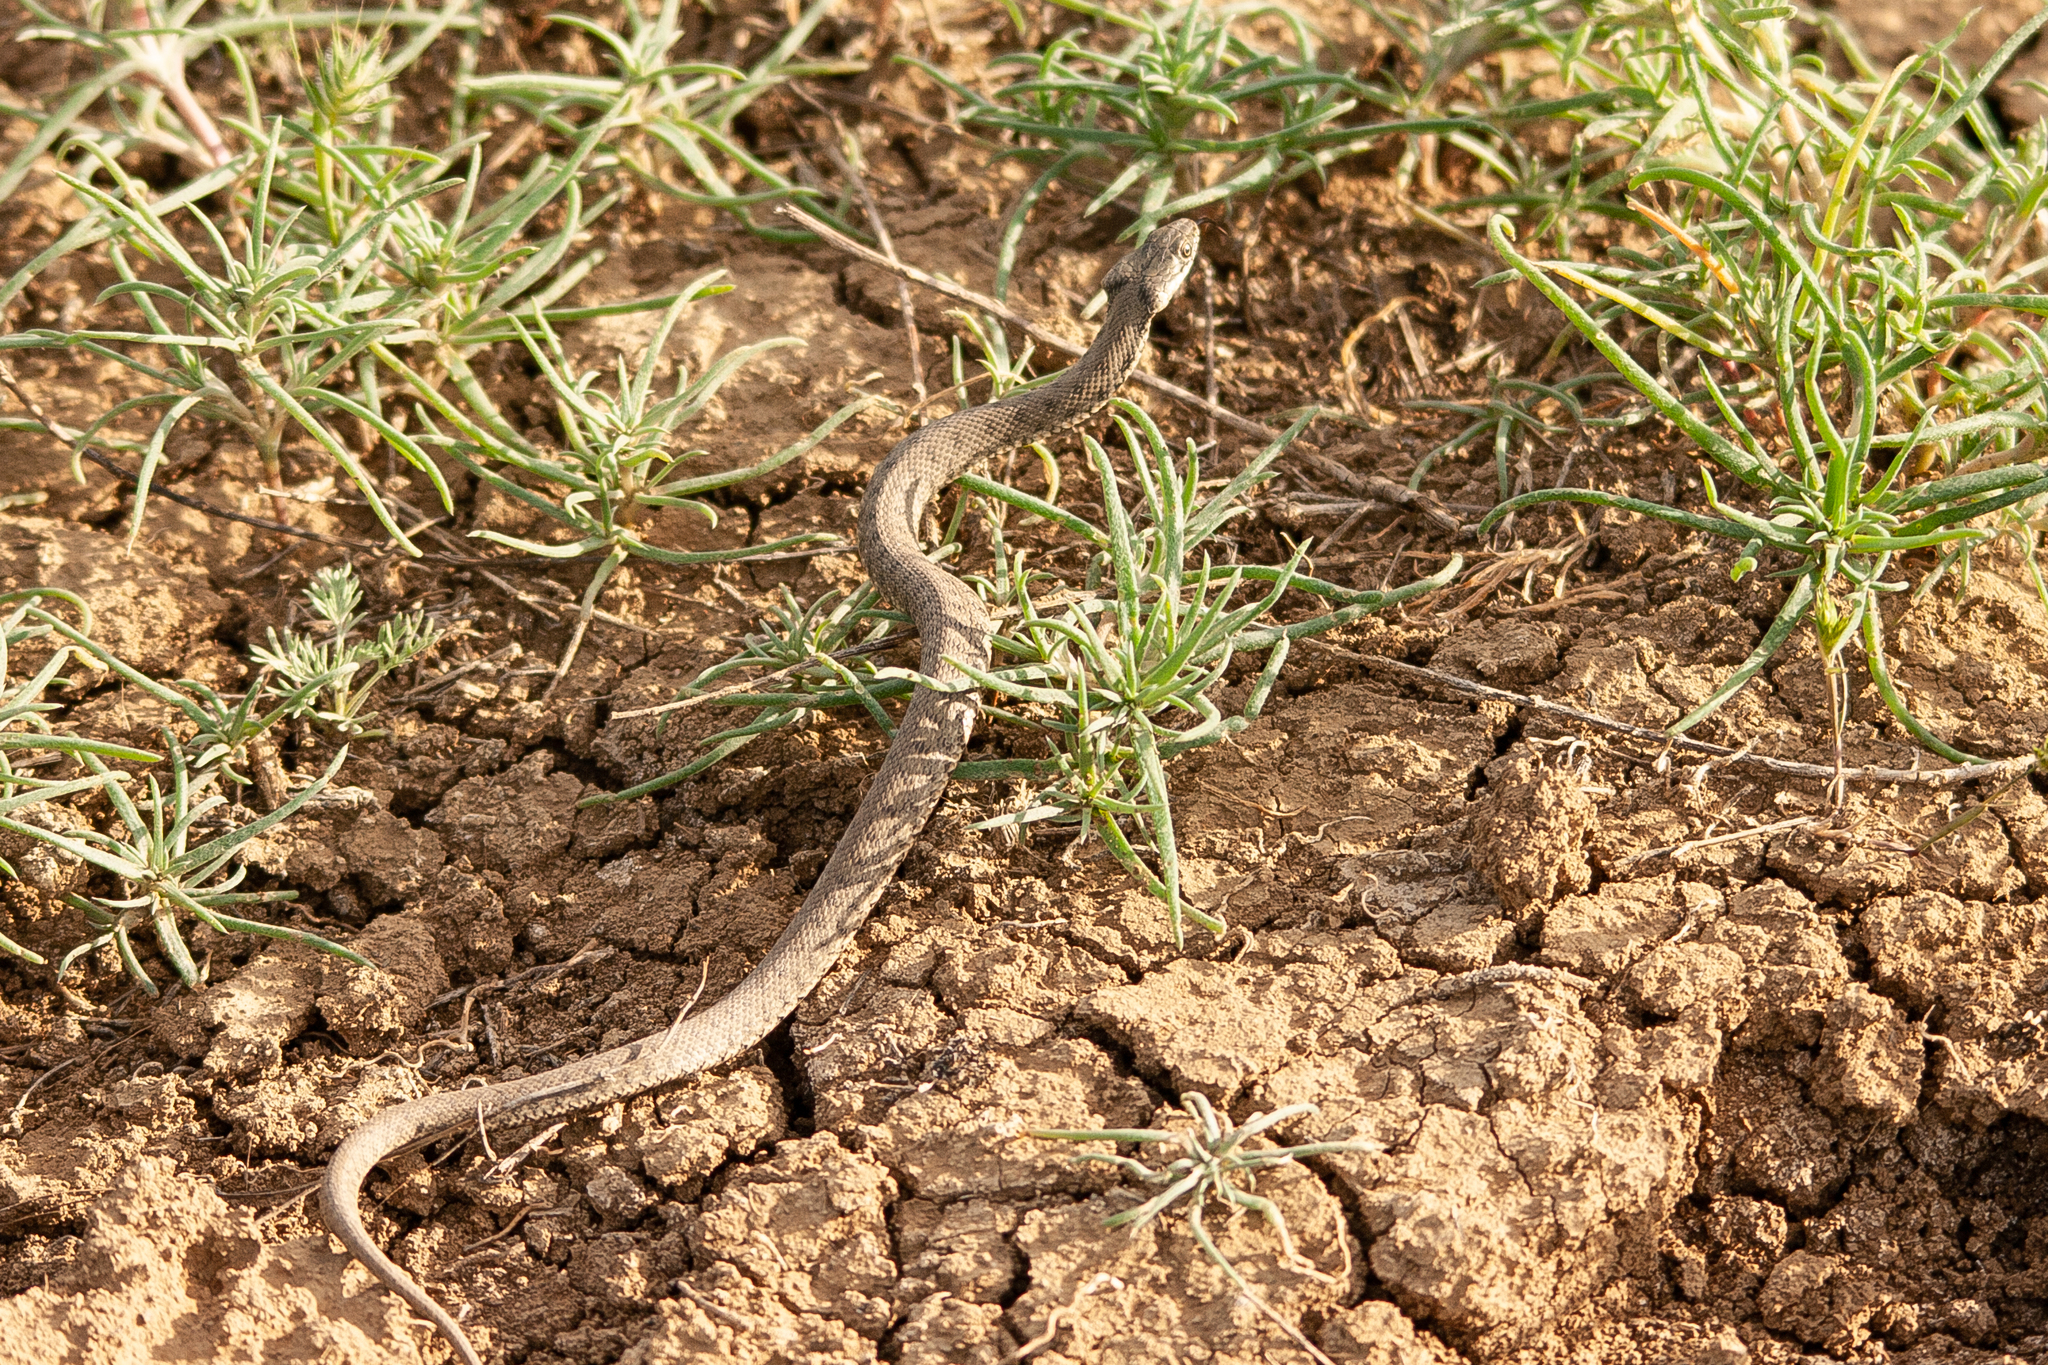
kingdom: Animalia
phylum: Chordata
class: Squamata
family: Colubridae
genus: Natrix
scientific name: Natrix tessellata
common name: Dice snake
